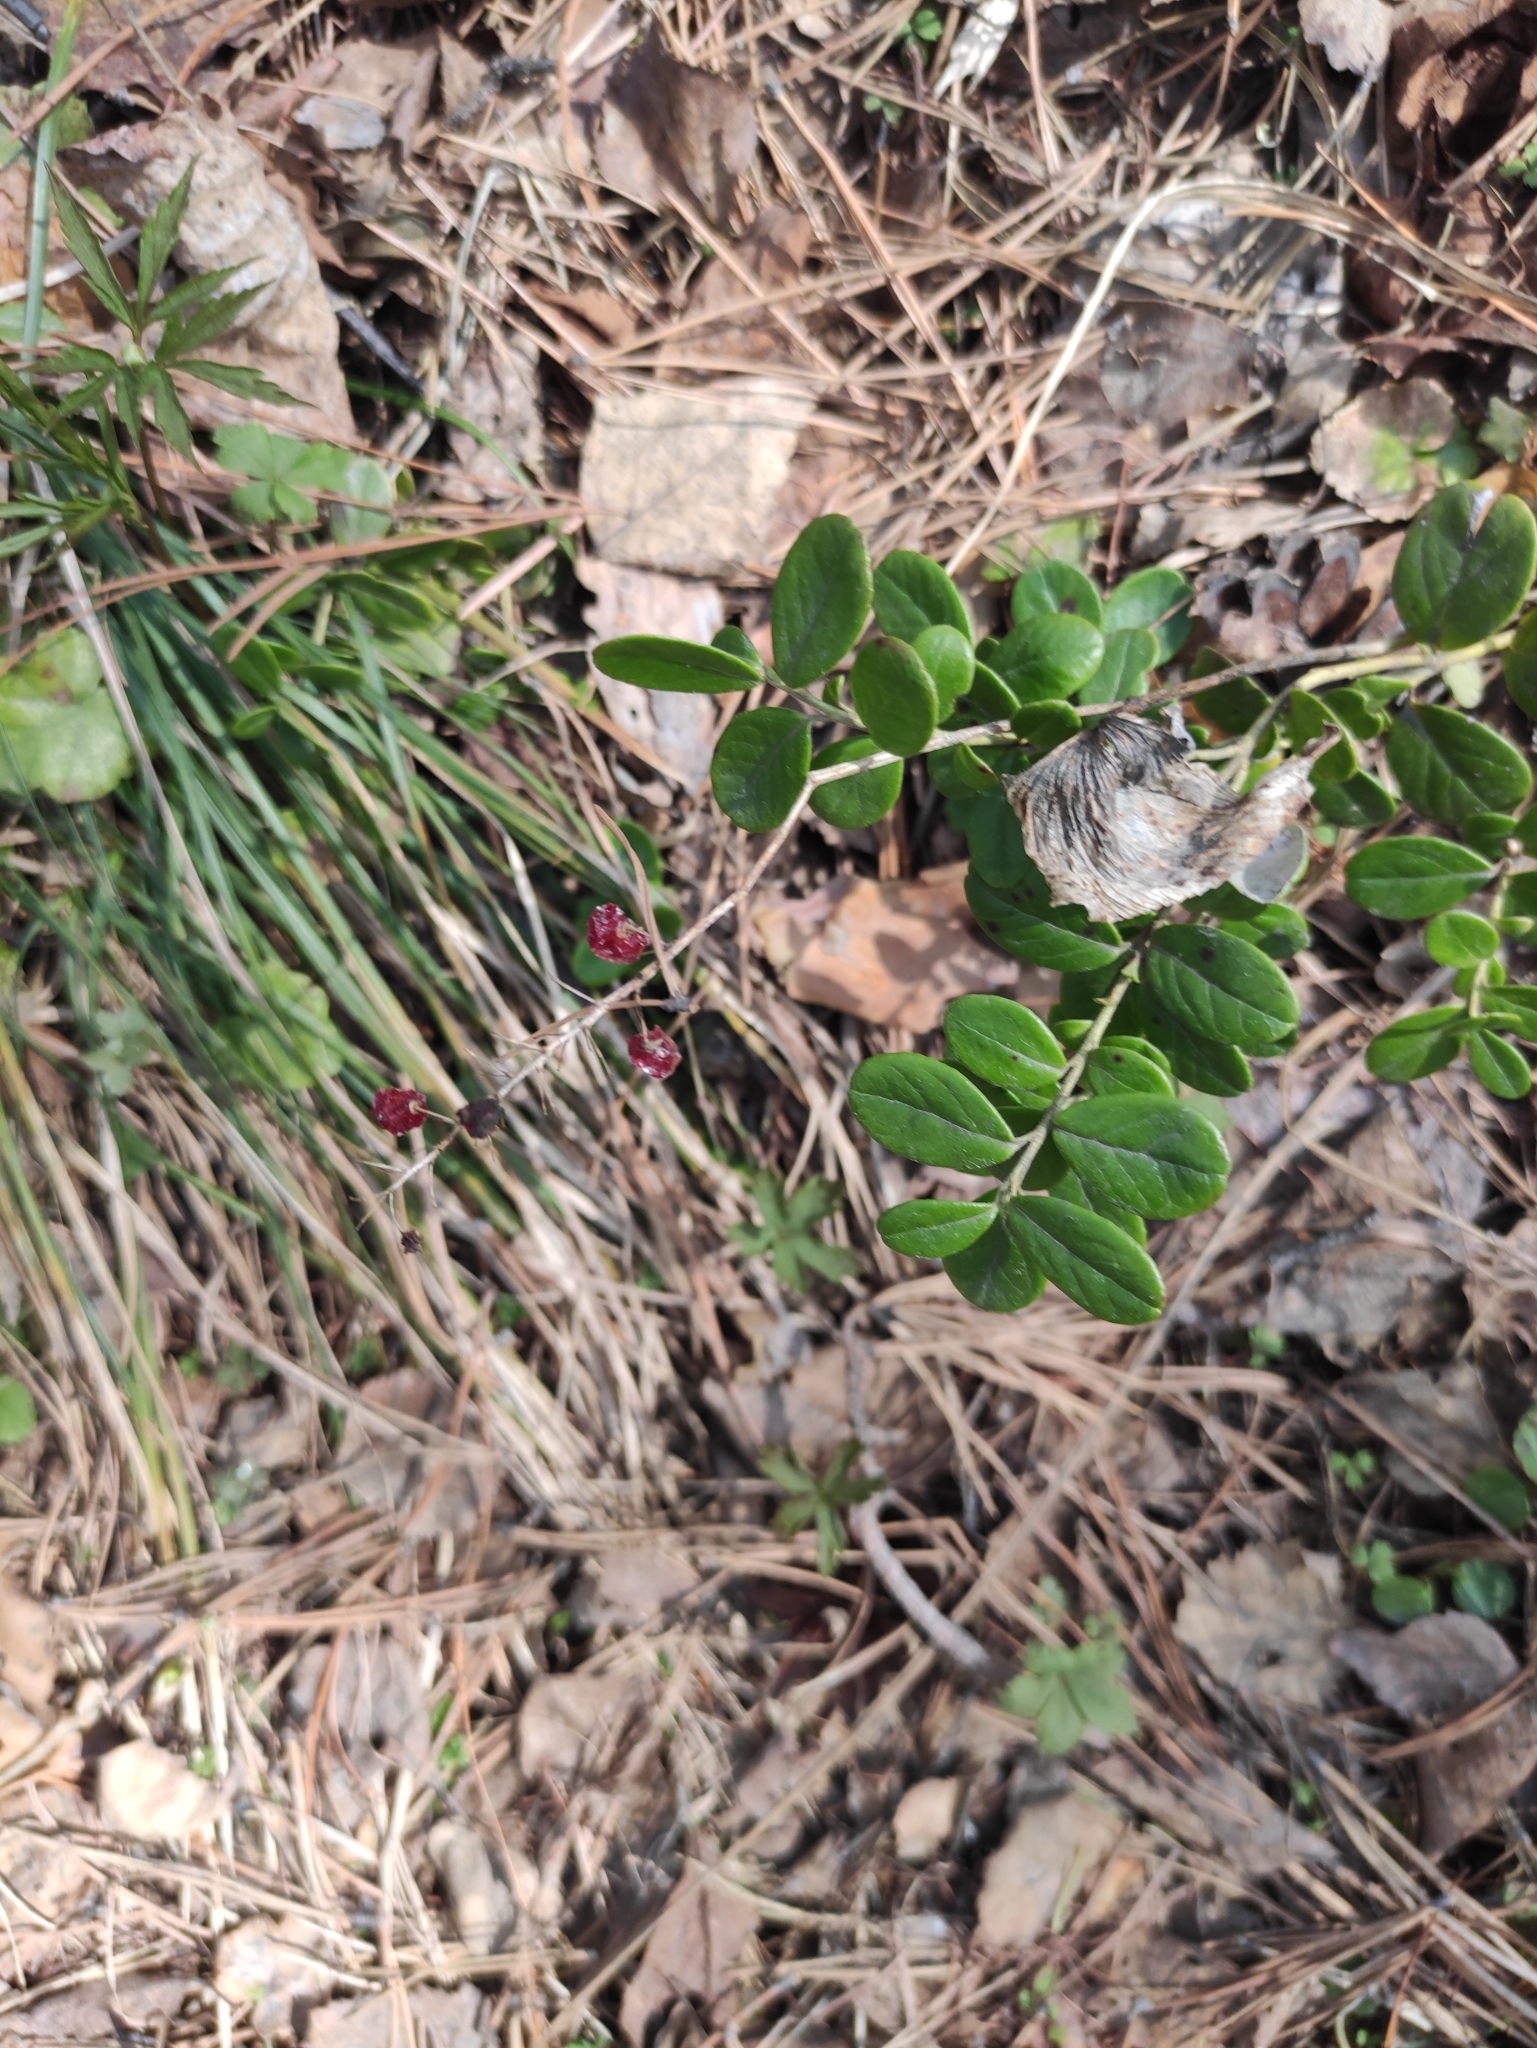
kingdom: Plantae
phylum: Tracheophyta
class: Liliopsida
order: Asparagales
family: Asparagaceae
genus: Maianthemum
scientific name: Maianthemum bifolium
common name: May lily
